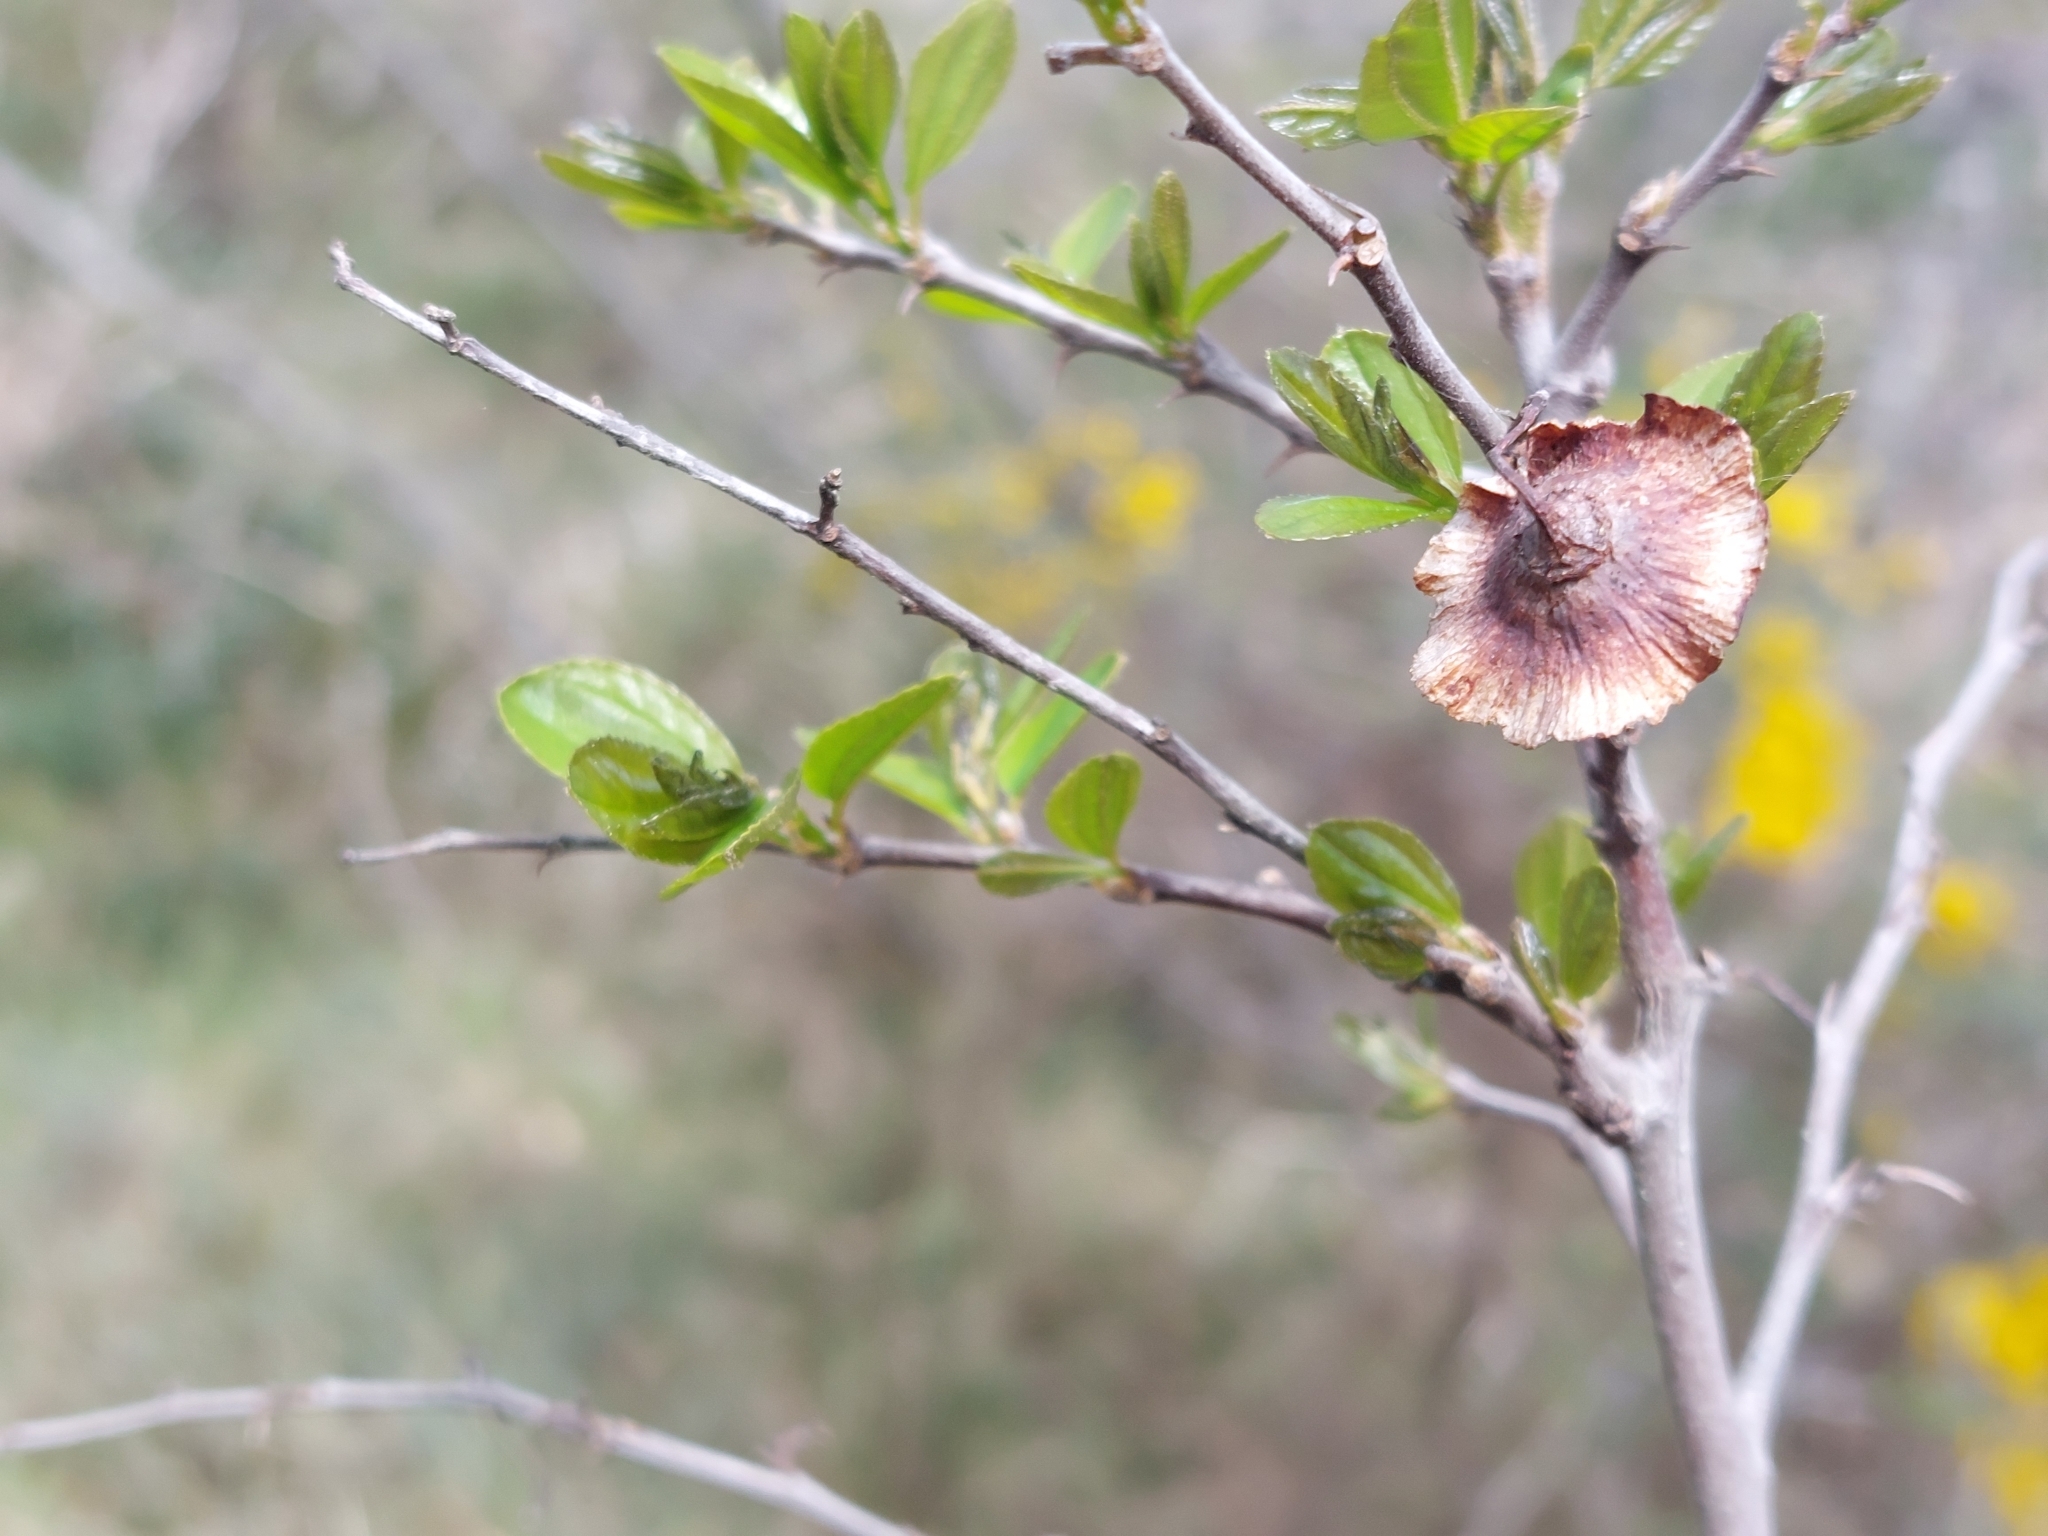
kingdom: Plantae
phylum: Tracheophyta
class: Magnoliopsida
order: Rosales
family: Rhamnaceae
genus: Paliurus
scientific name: Paliurus spina-christi
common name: Jeruselem thorn
